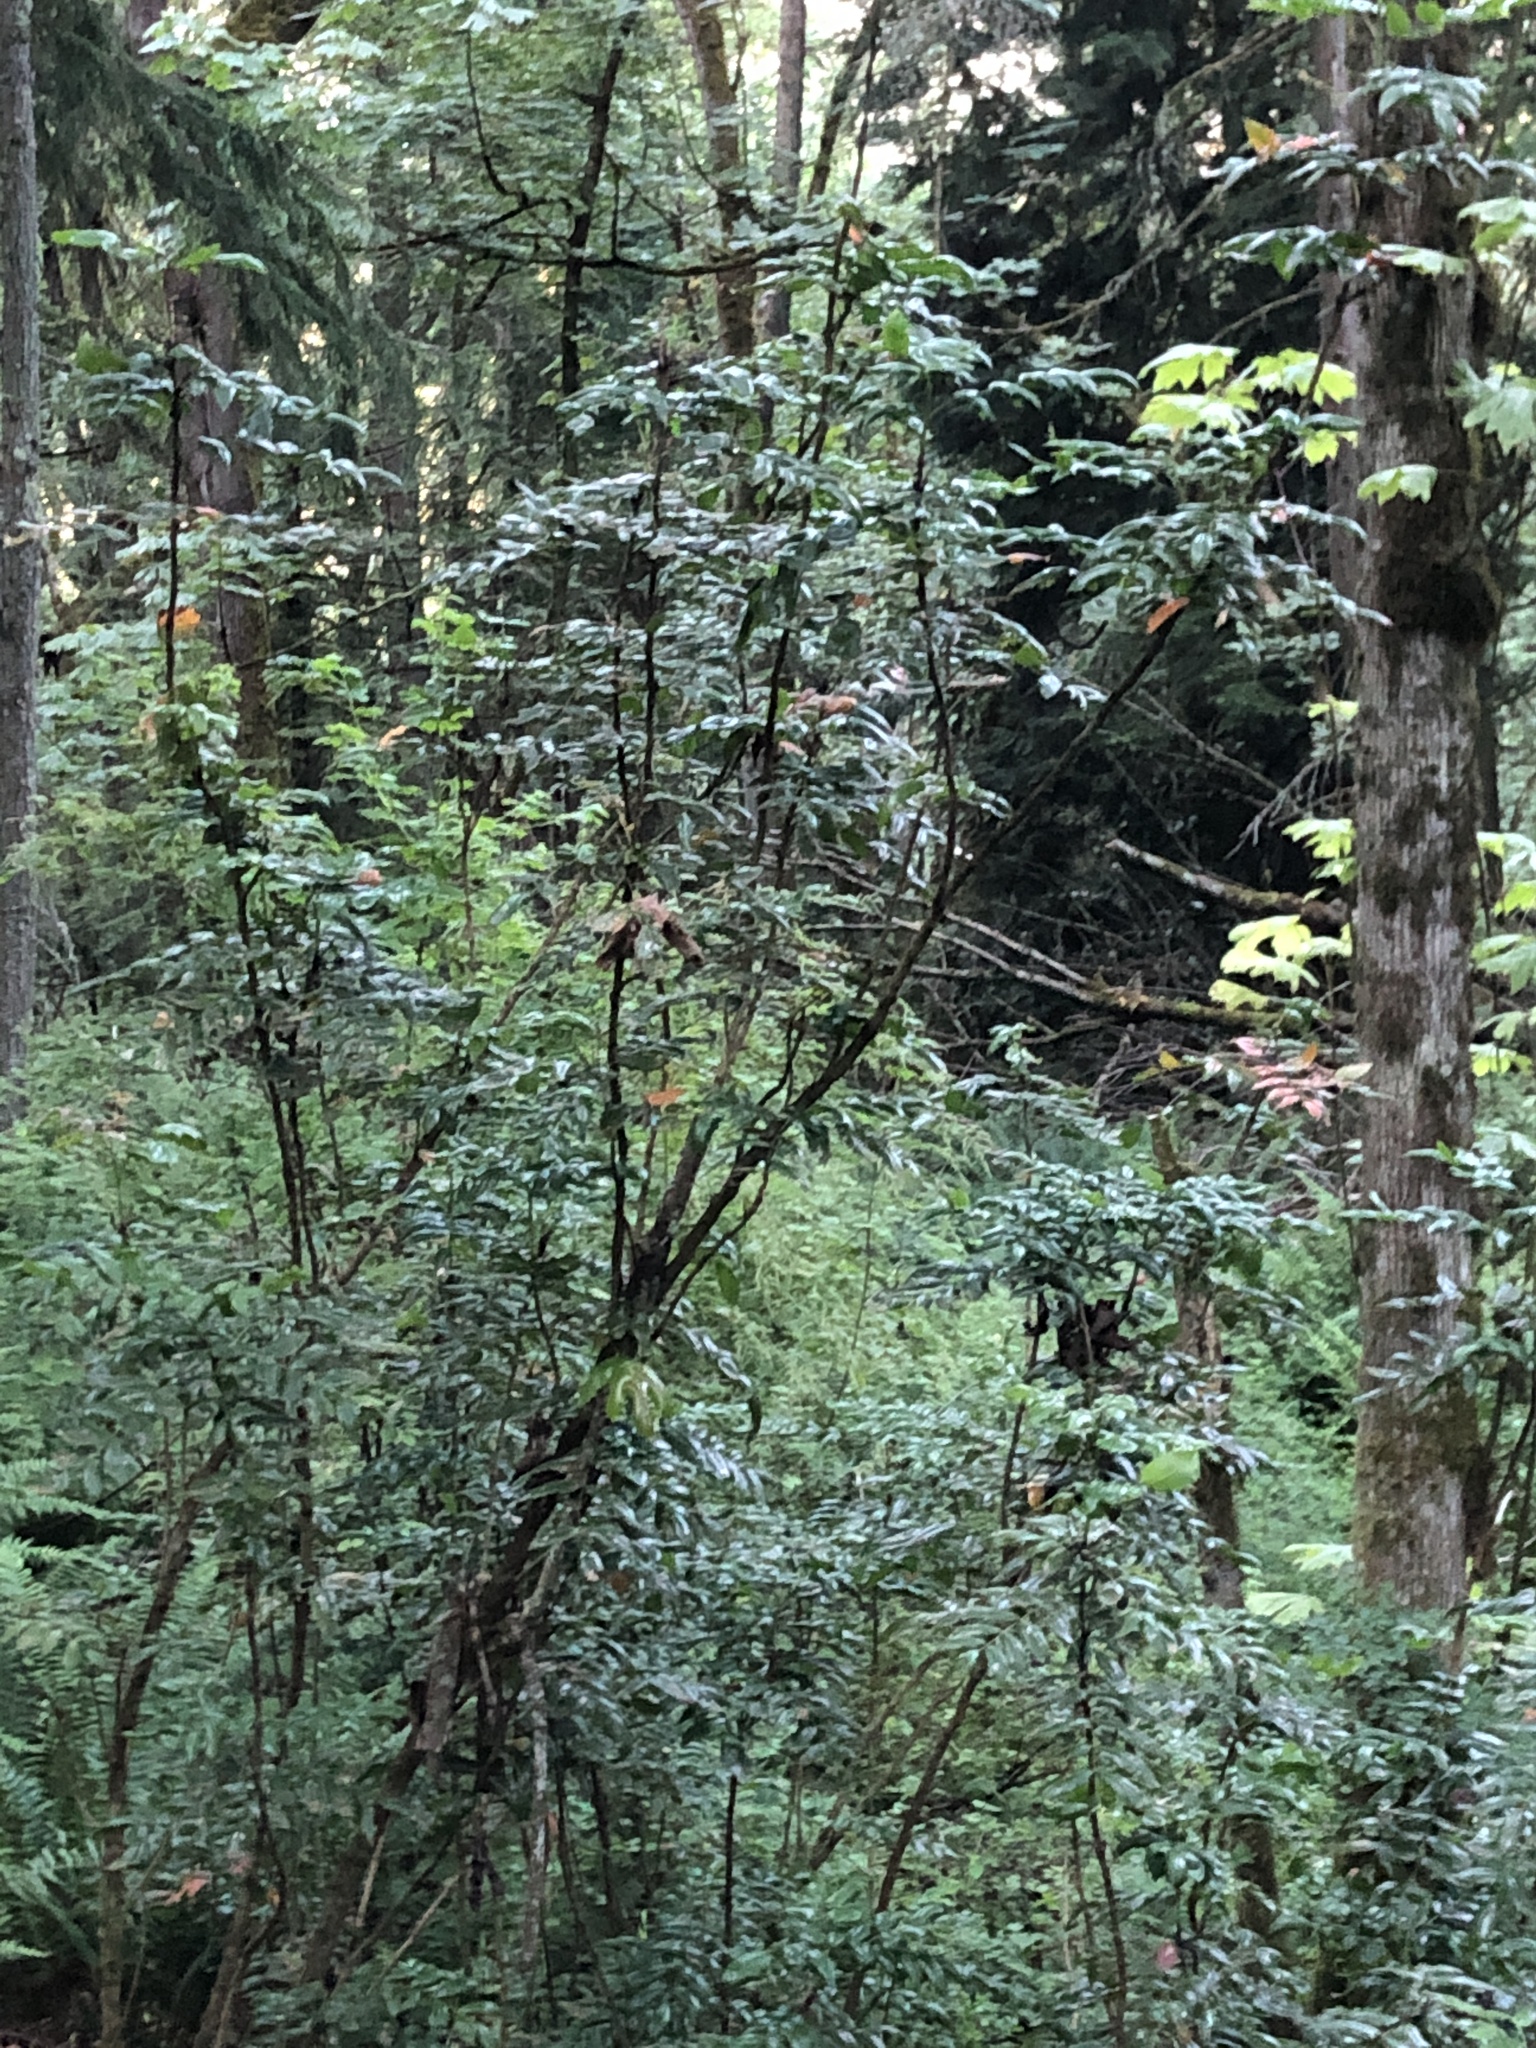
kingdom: Plantae
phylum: Tracheophyta
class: Magnoliopsida
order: Ranunculales
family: Berberidaceae
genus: Mahonia
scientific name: Mahonia aquifolium
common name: Oregon-grape
